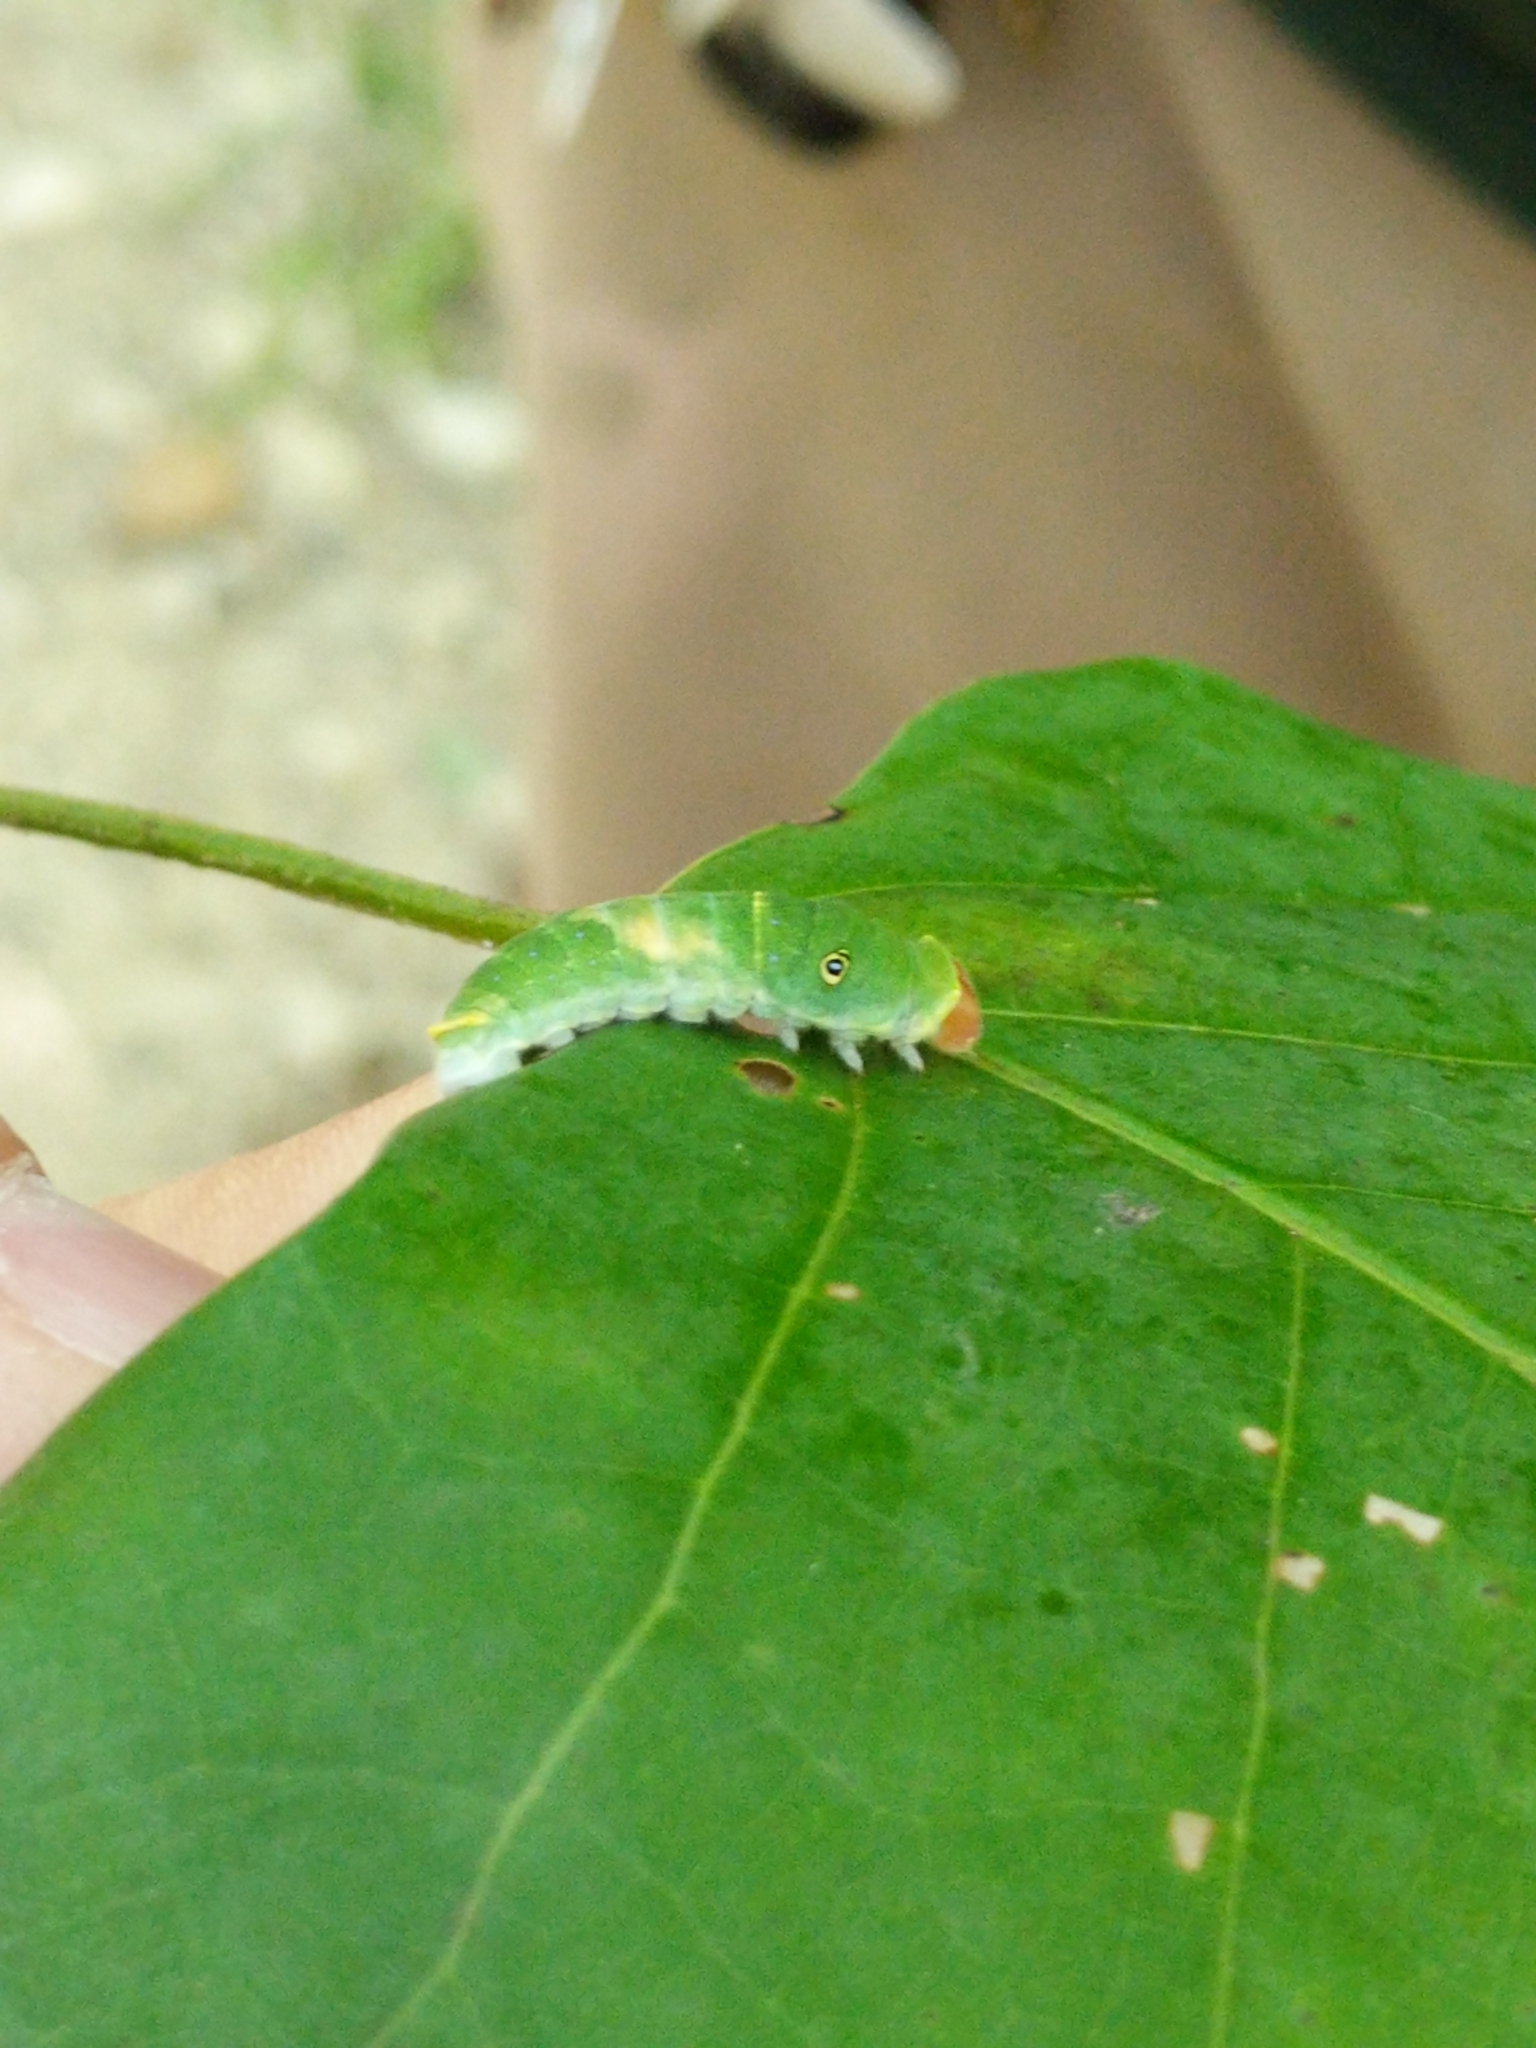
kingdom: Animalia
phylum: Arthropoda
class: Insecta
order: Lepidoptera
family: Papilionidae
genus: Papilio
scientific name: Papilio glaucus
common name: Tiger swallowtail
